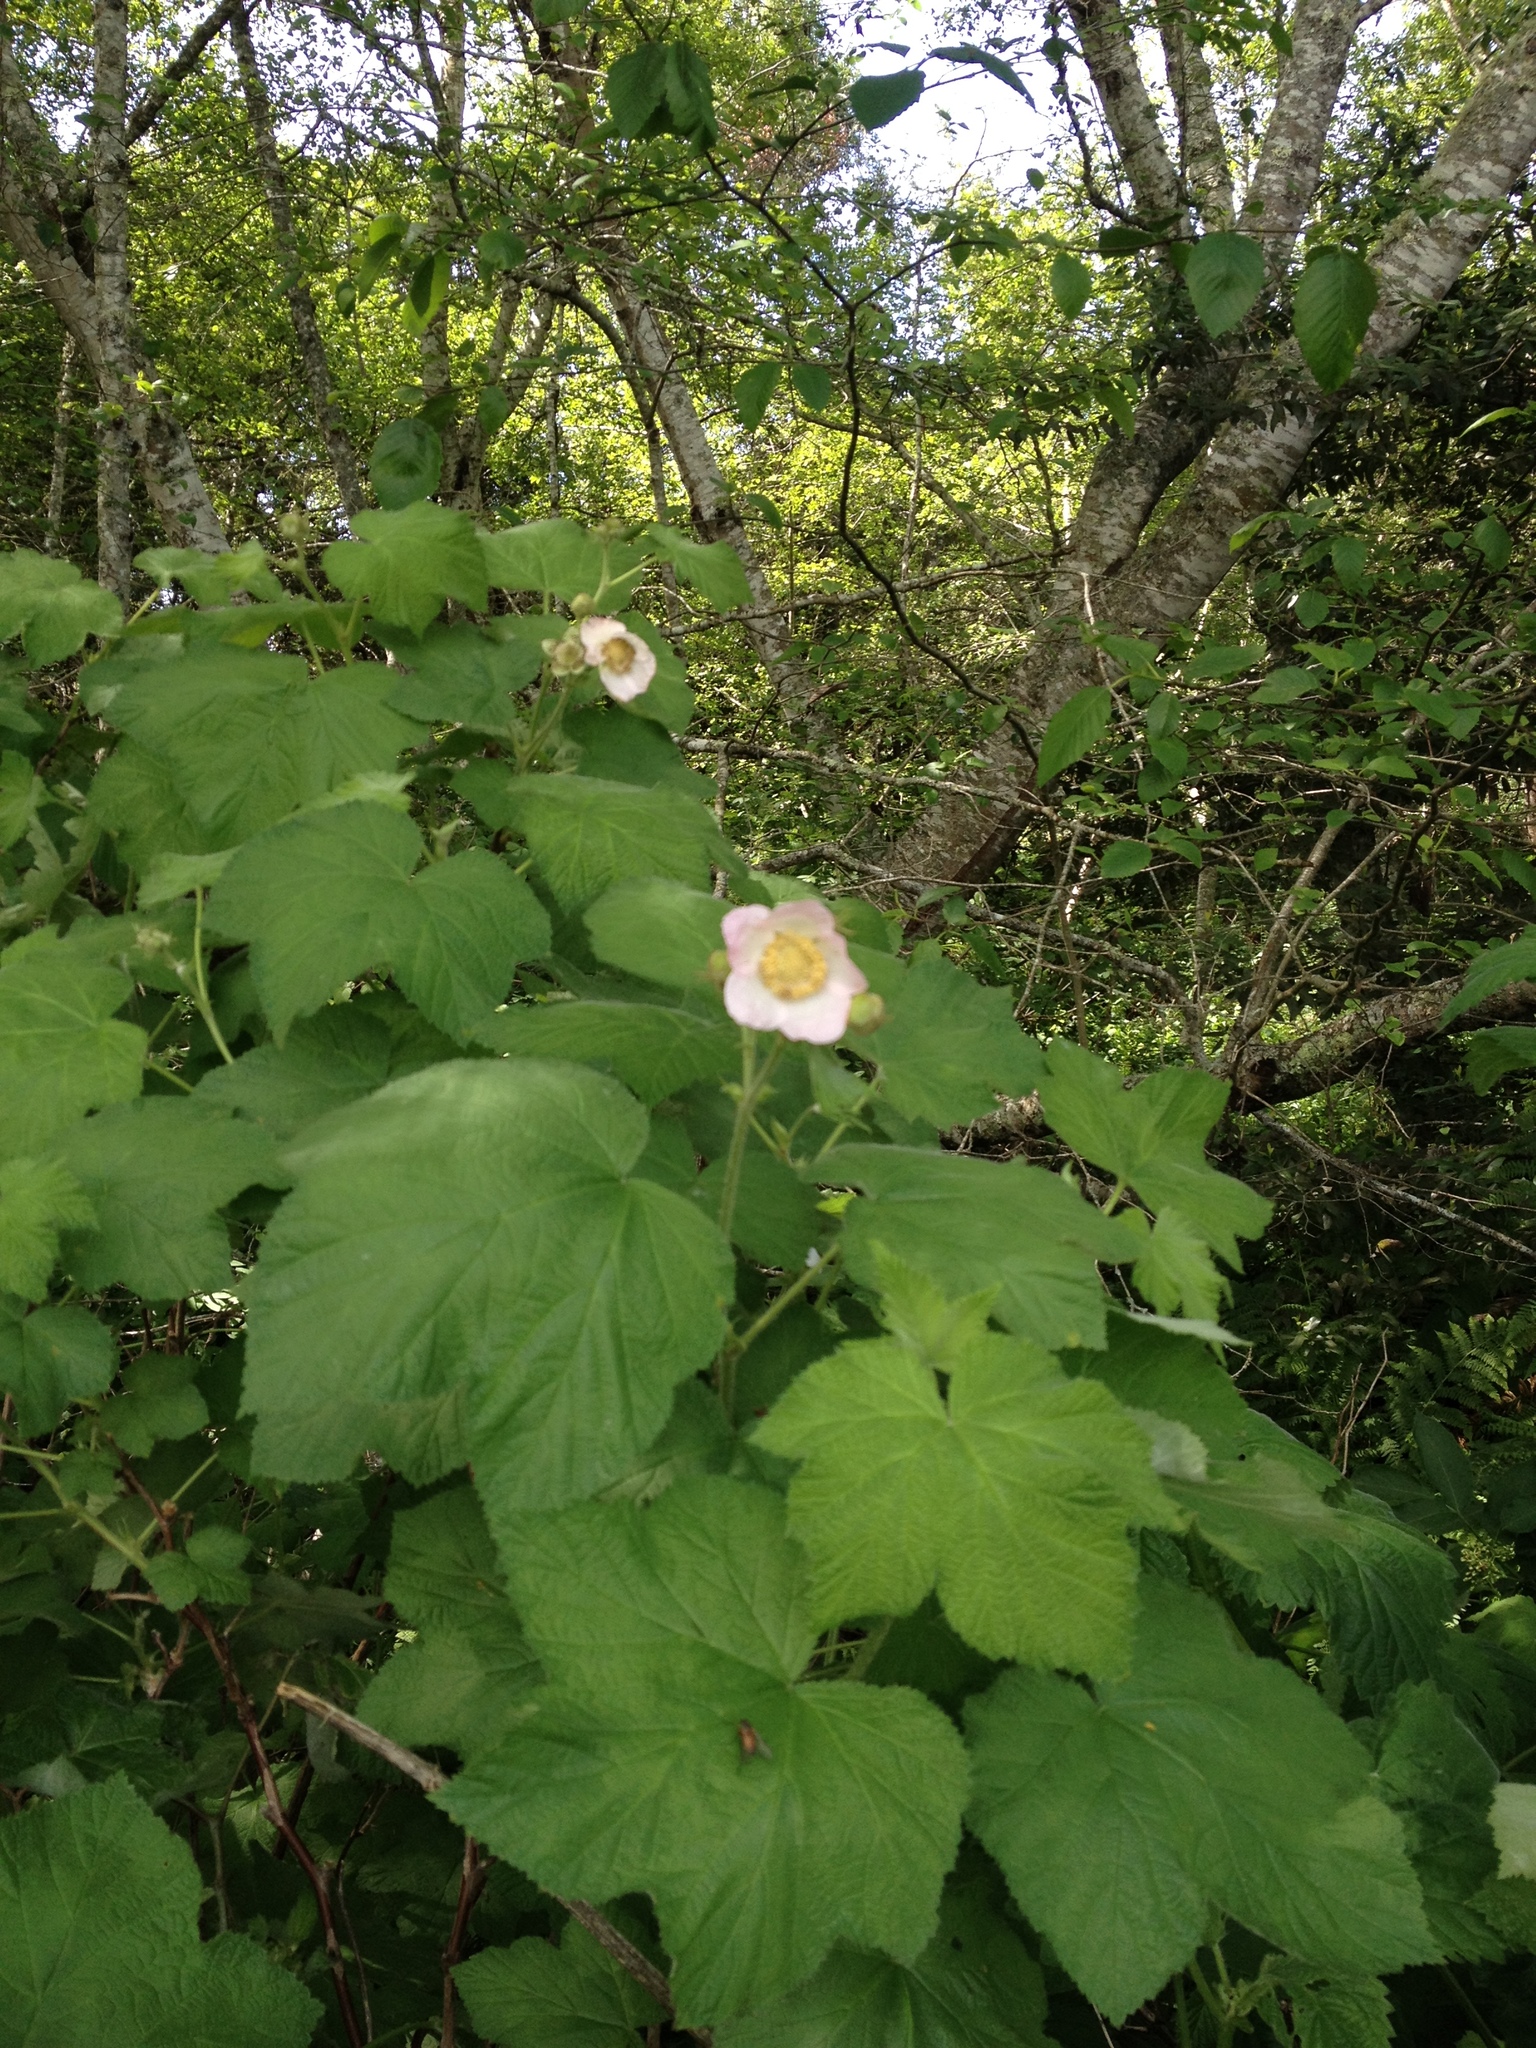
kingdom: Plantae
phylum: Tracheophyta
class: Magnoliopsida
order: Rosales
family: Rosaceae
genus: Rubus
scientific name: Rubus parviflorus
